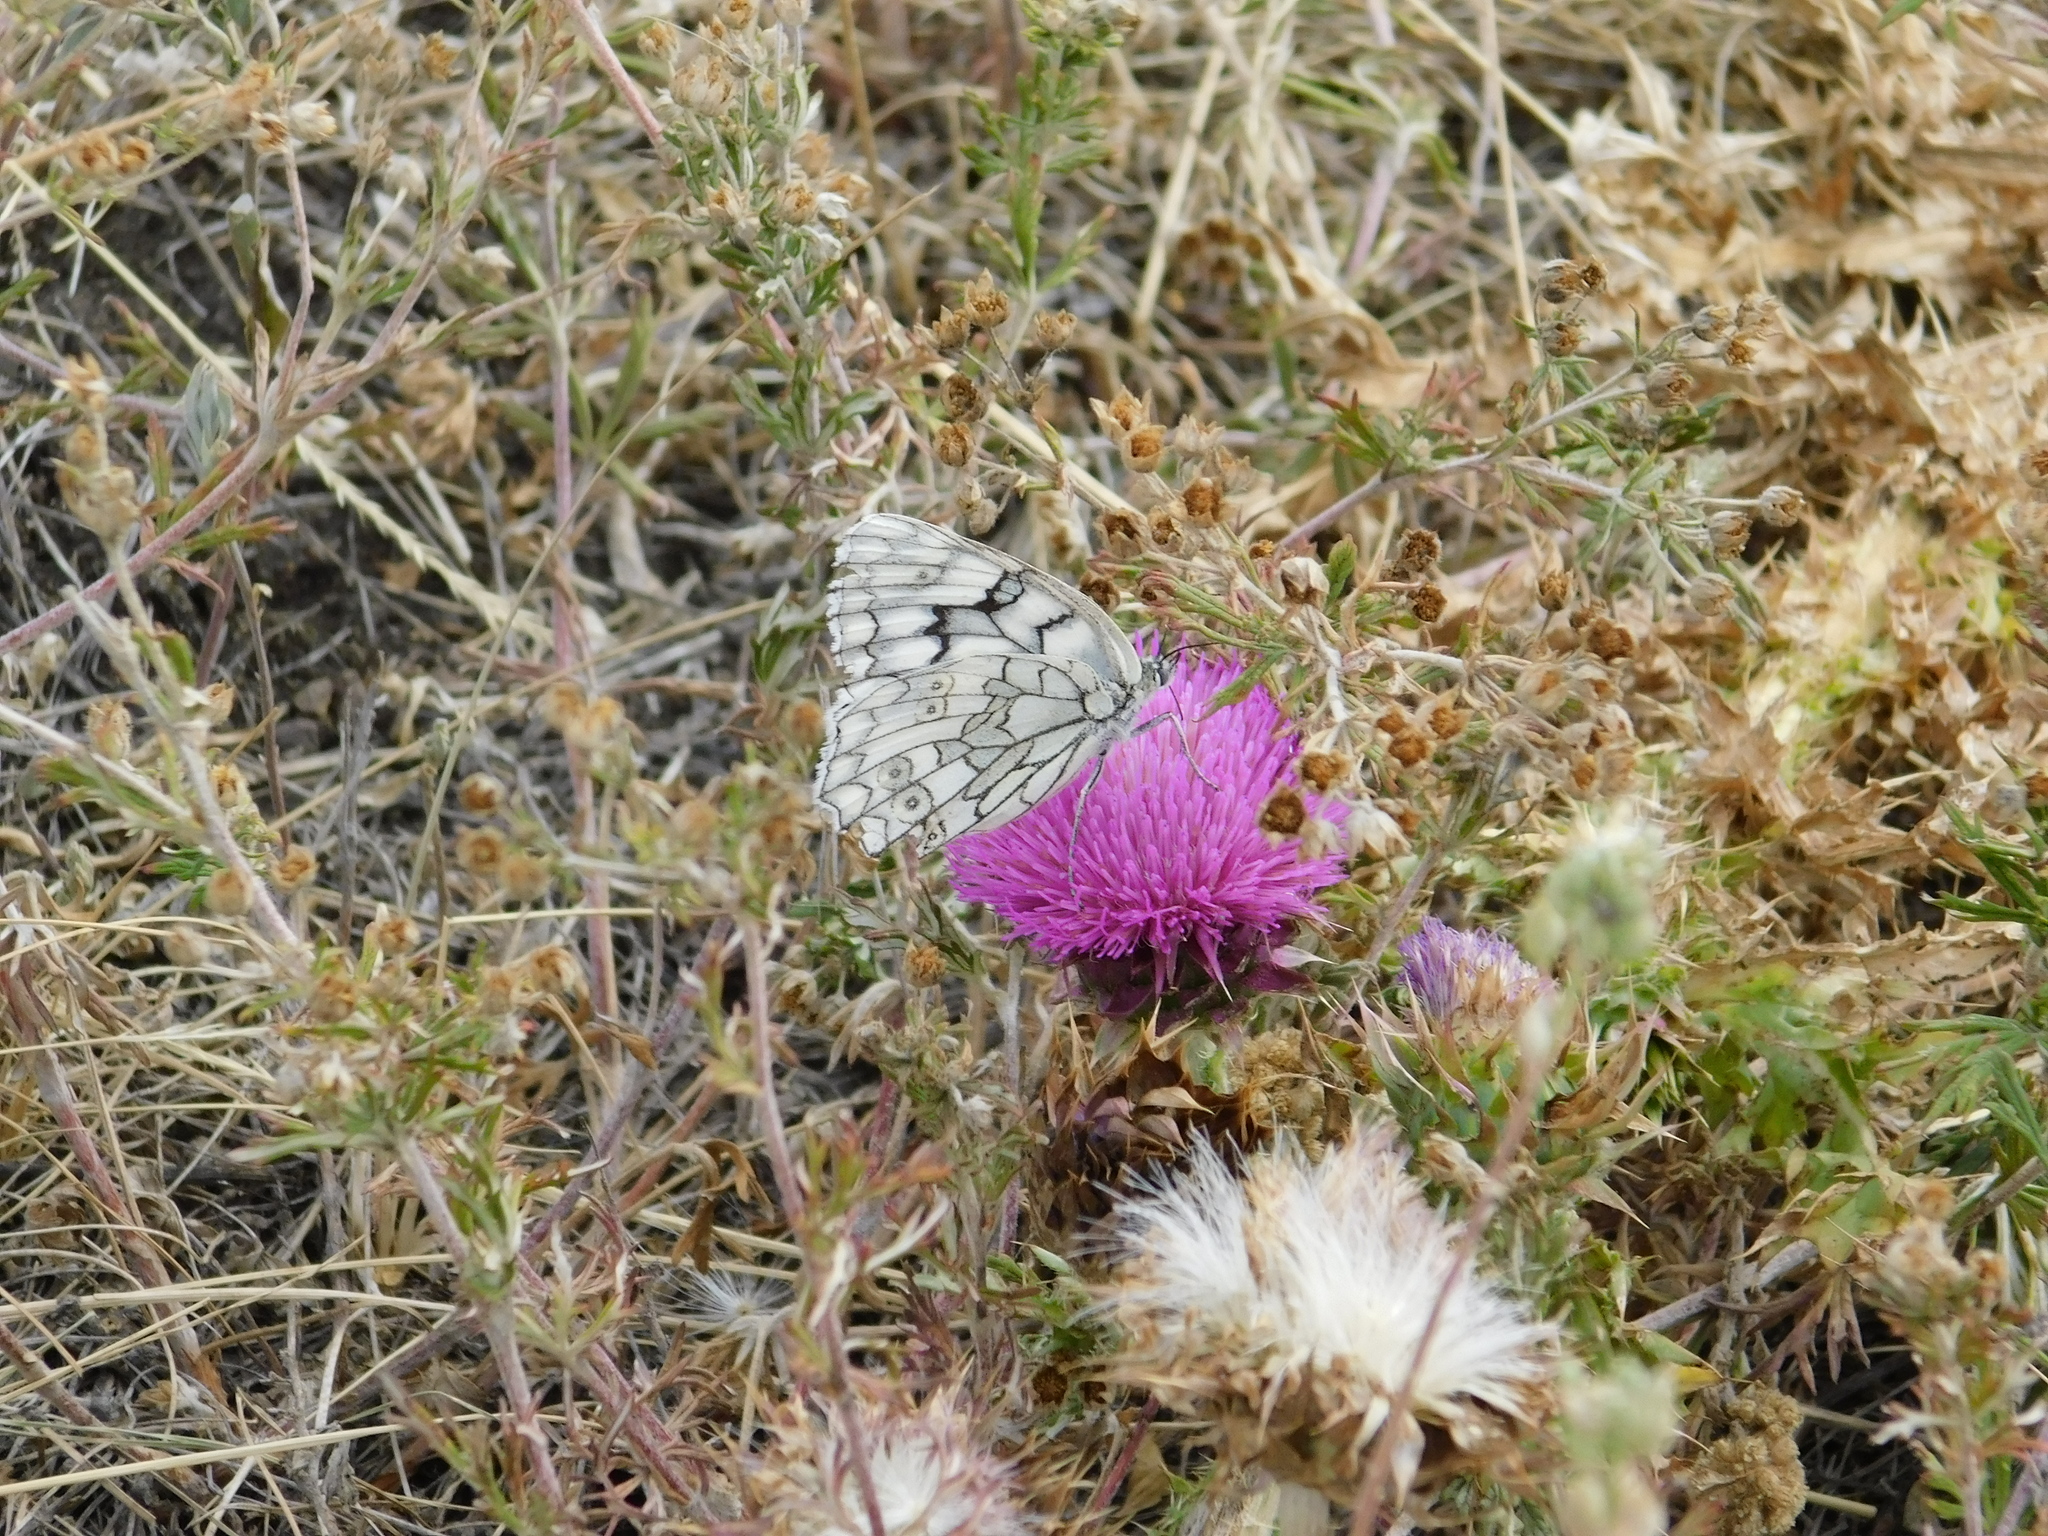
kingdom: Animalia
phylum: Arthropoda
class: Insecta
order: Lepidoptera
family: Nymphalidae
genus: Melanargia
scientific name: Melanargia japygia
